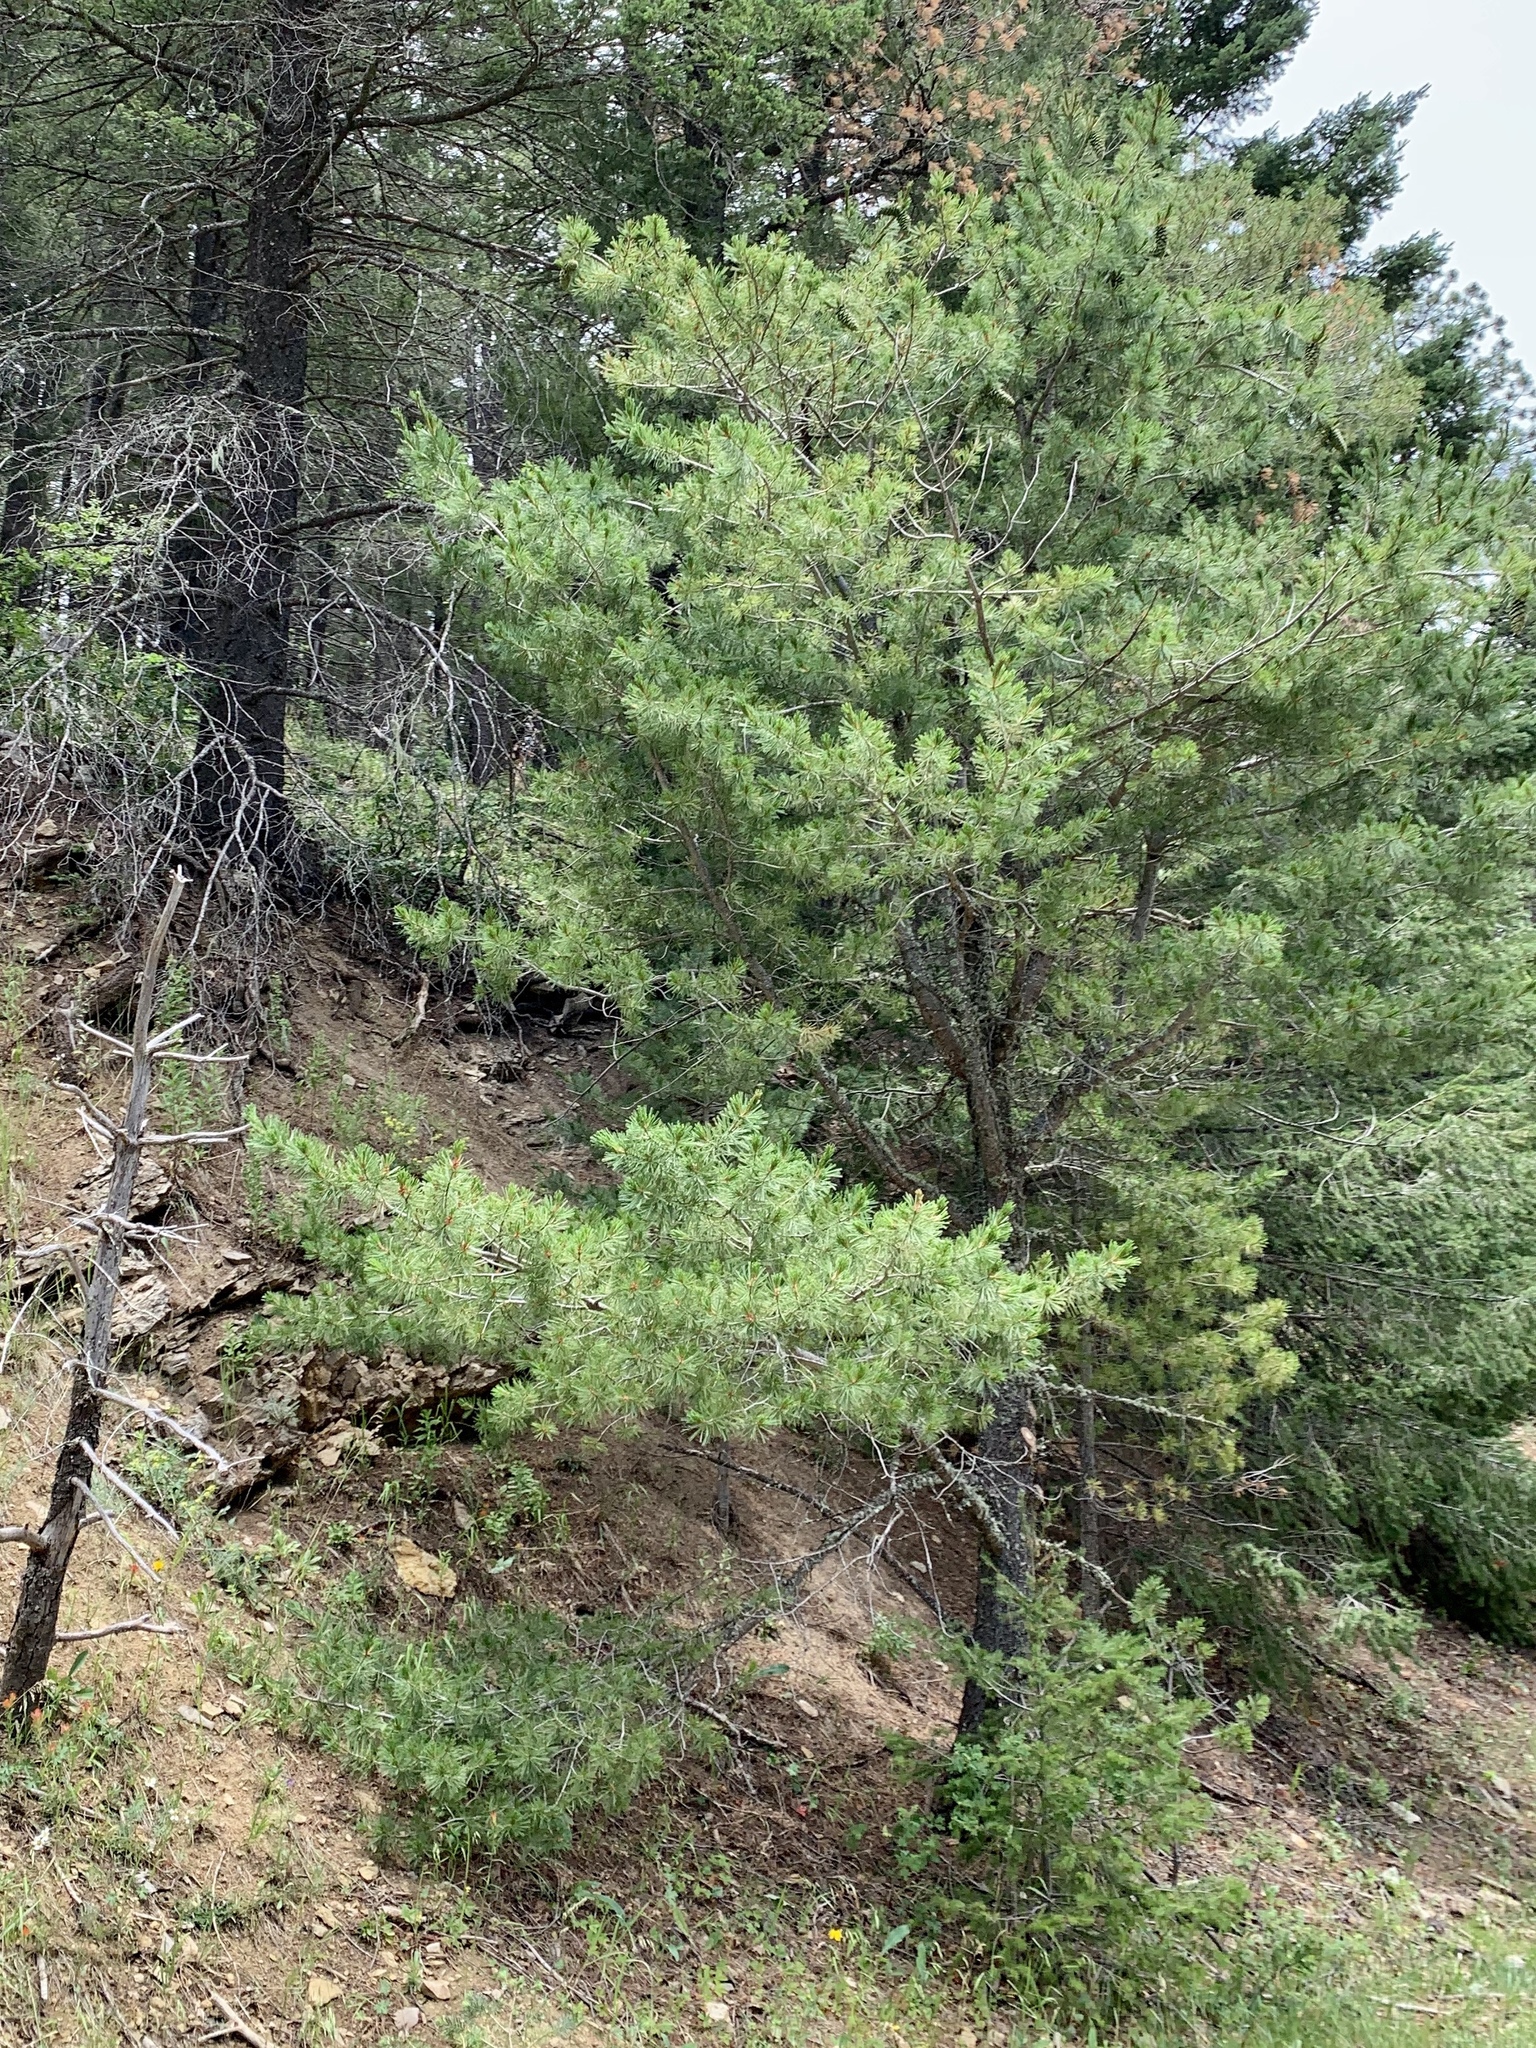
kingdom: Plantae
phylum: Tracheophyta
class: Pinopsida
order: Pinales
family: Pinaceae
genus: Pinus
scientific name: Pinus strobiformis
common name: Southwestern white pine
